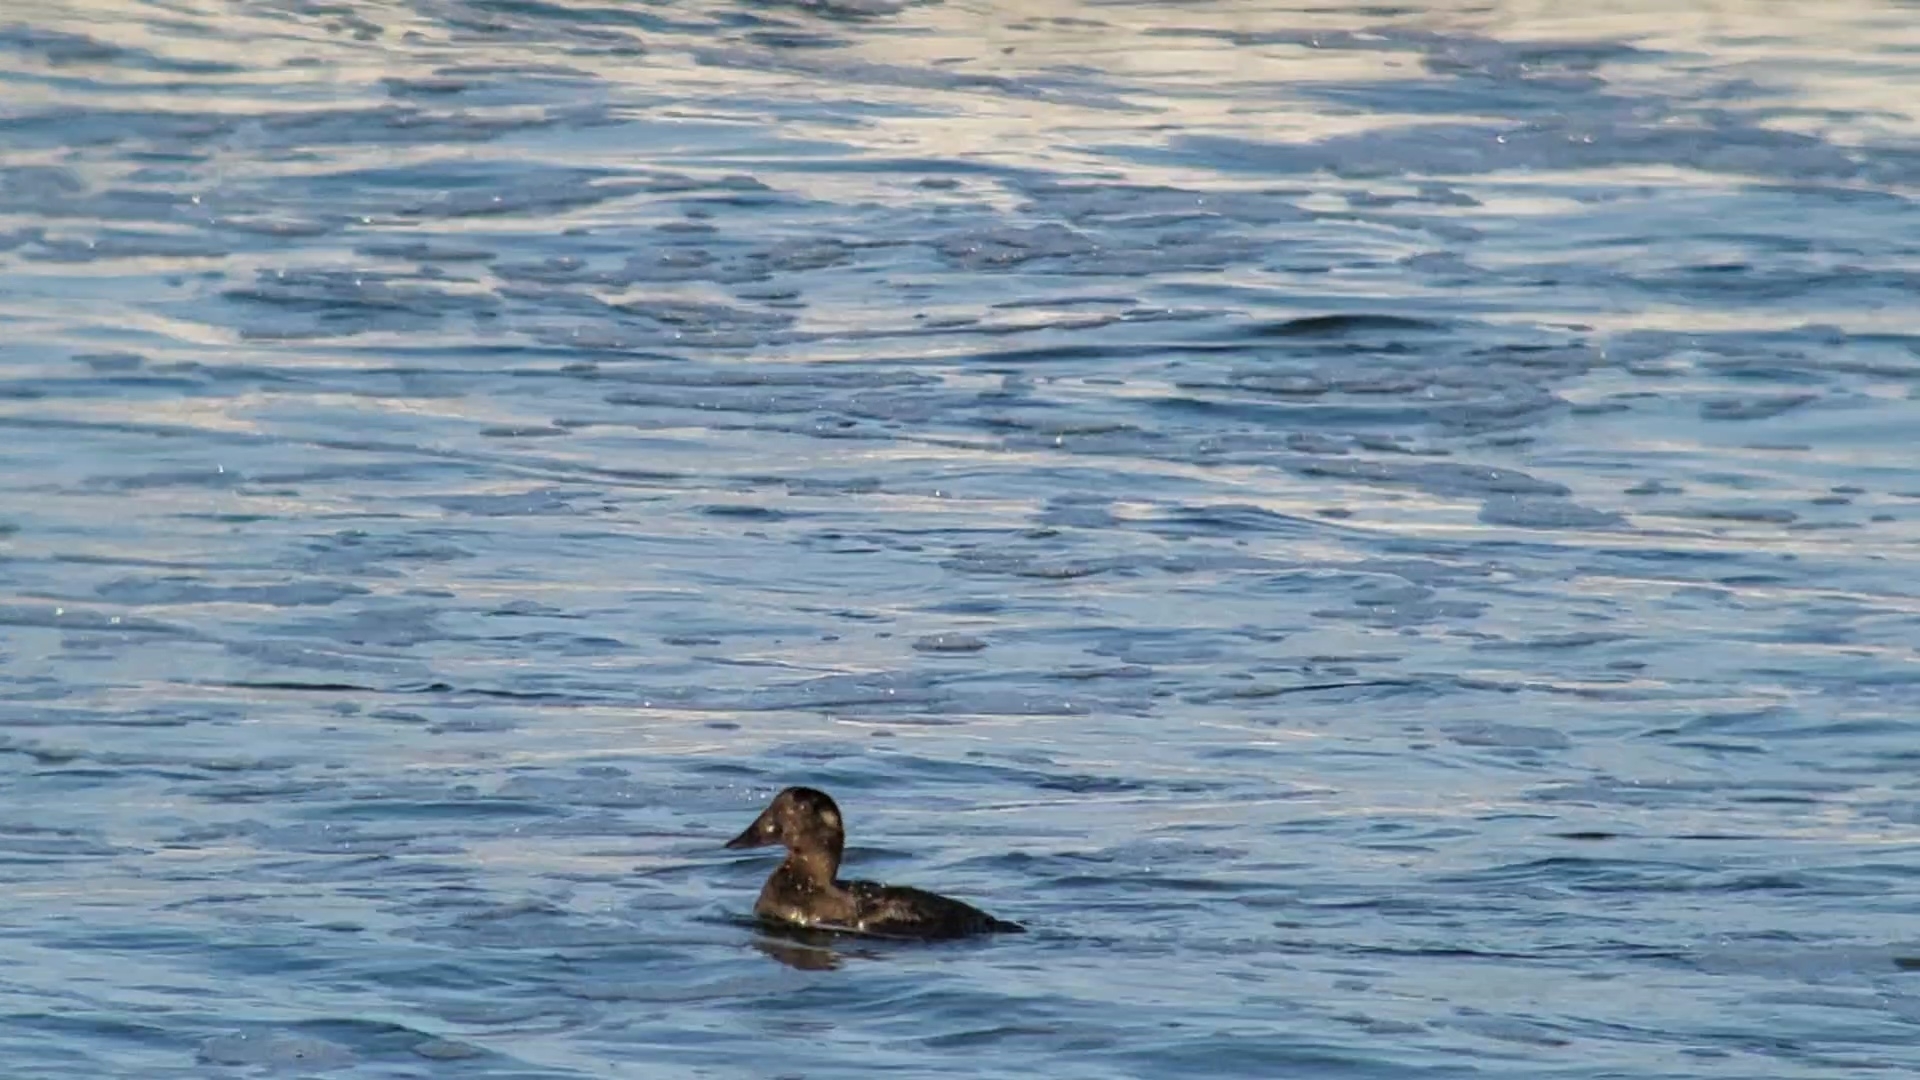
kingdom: Animalia
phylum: Chordata
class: Aves
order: Anseriformes
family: Anatidae
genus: Melanitta
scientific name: Melanitta perspicillata
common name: Surf scoter
